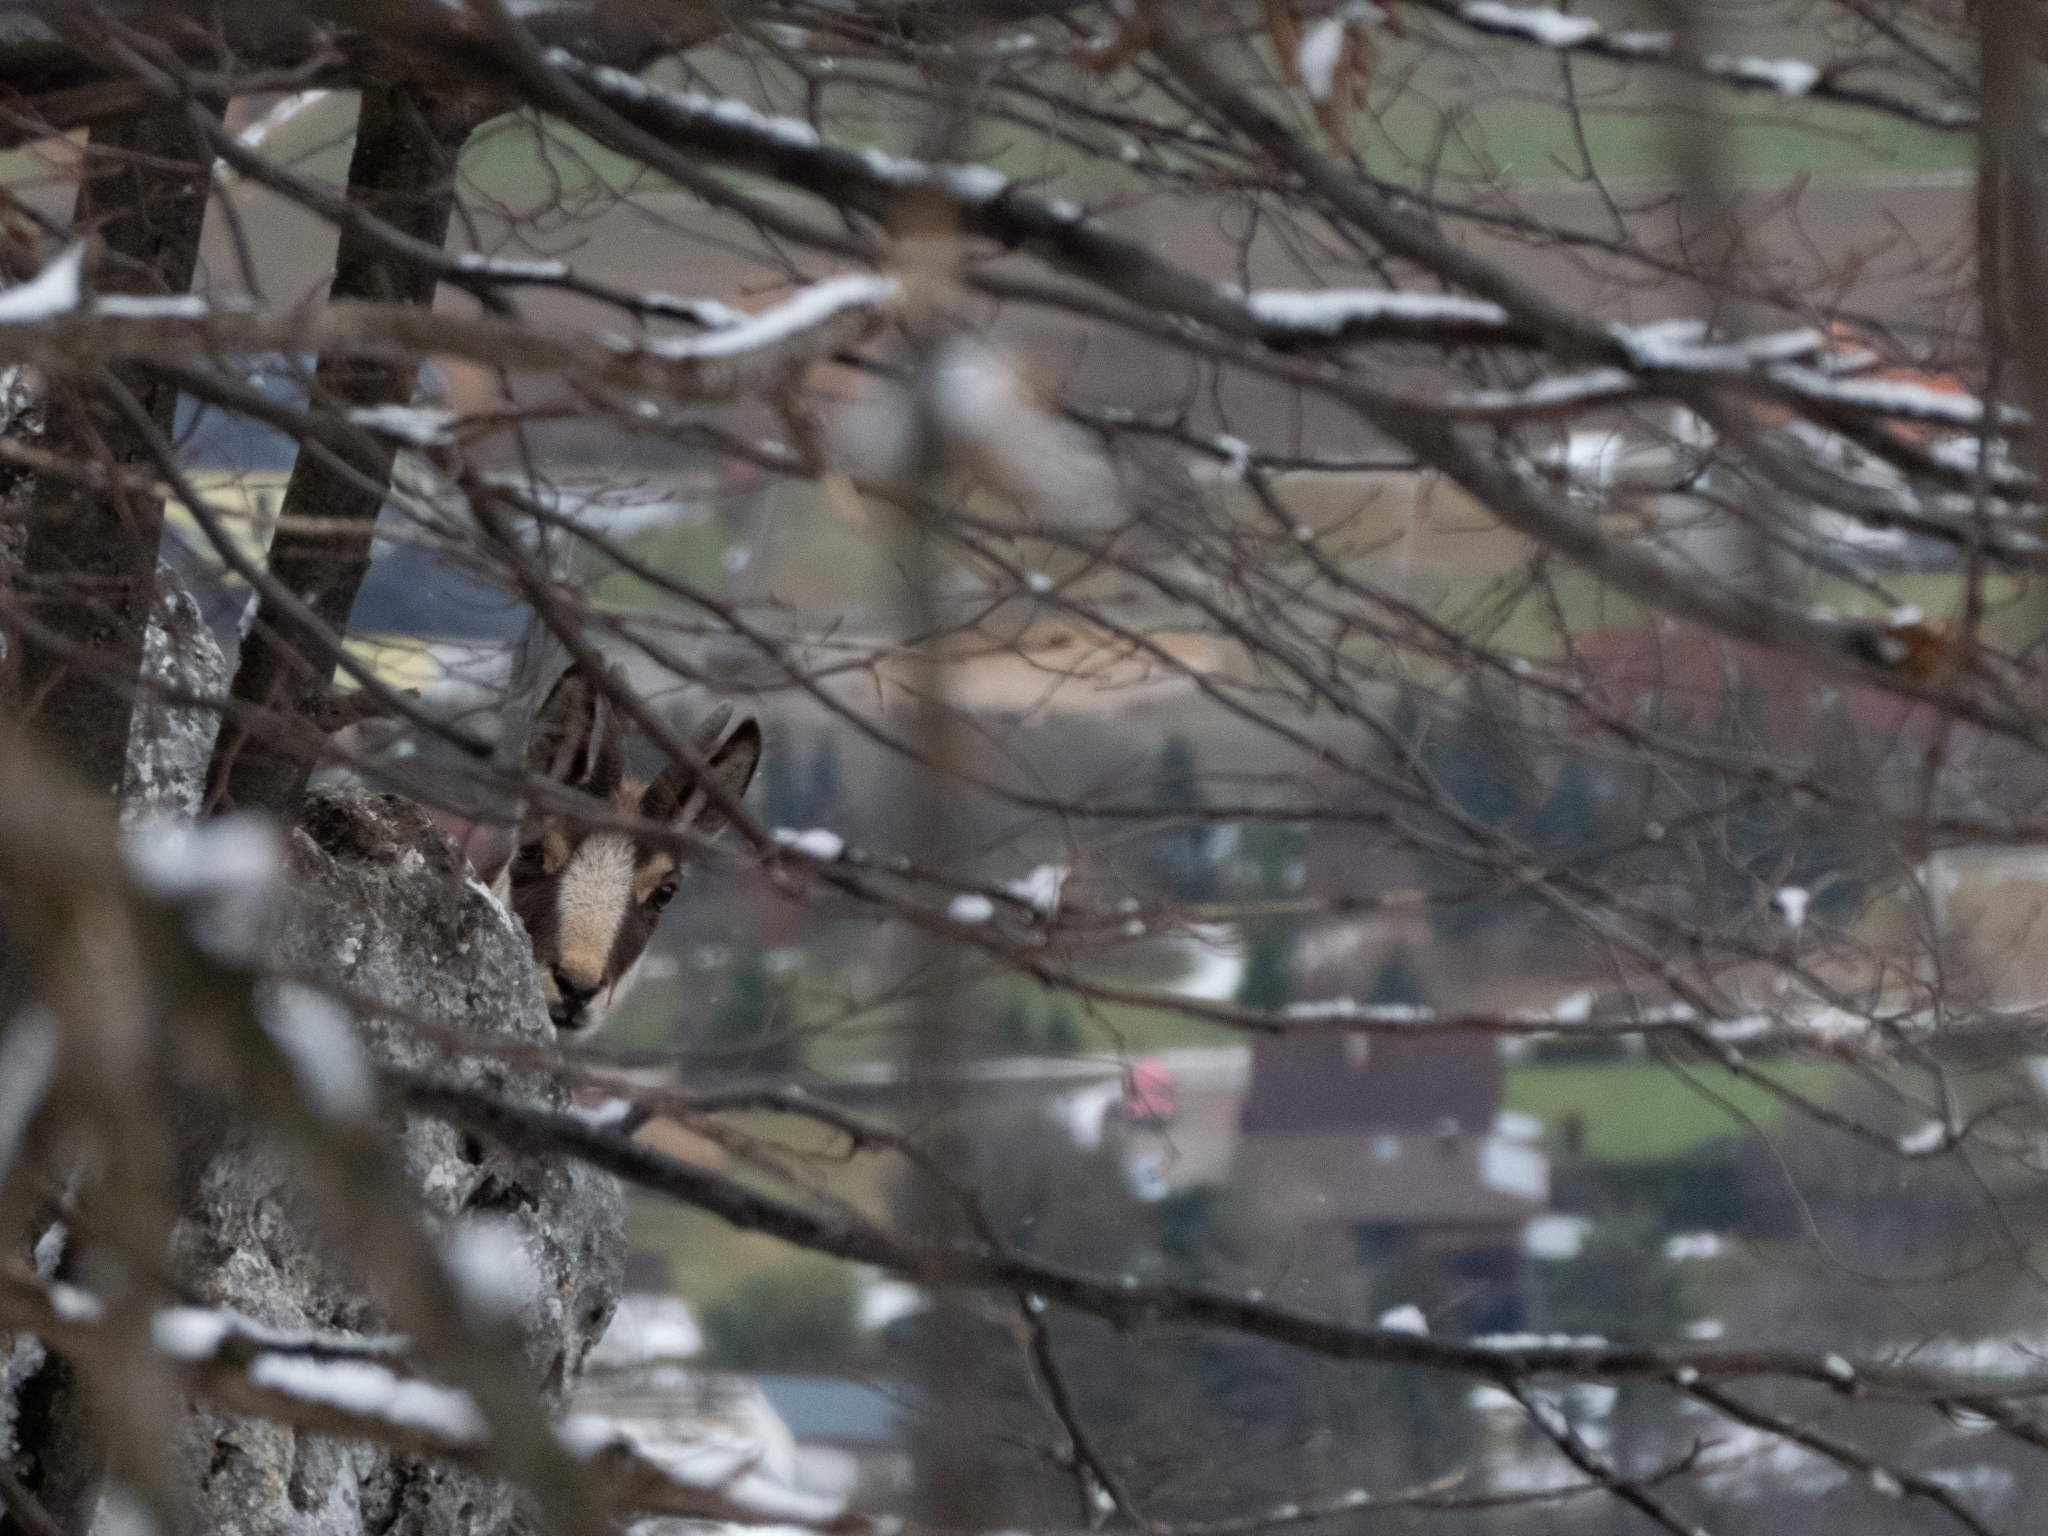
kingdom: Animalia
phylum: Chordata
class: Mammalia
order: Artiodactyla
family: Bovidae
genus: Rupicapra
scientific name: Rupicapra rupicapra
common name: Chamois
